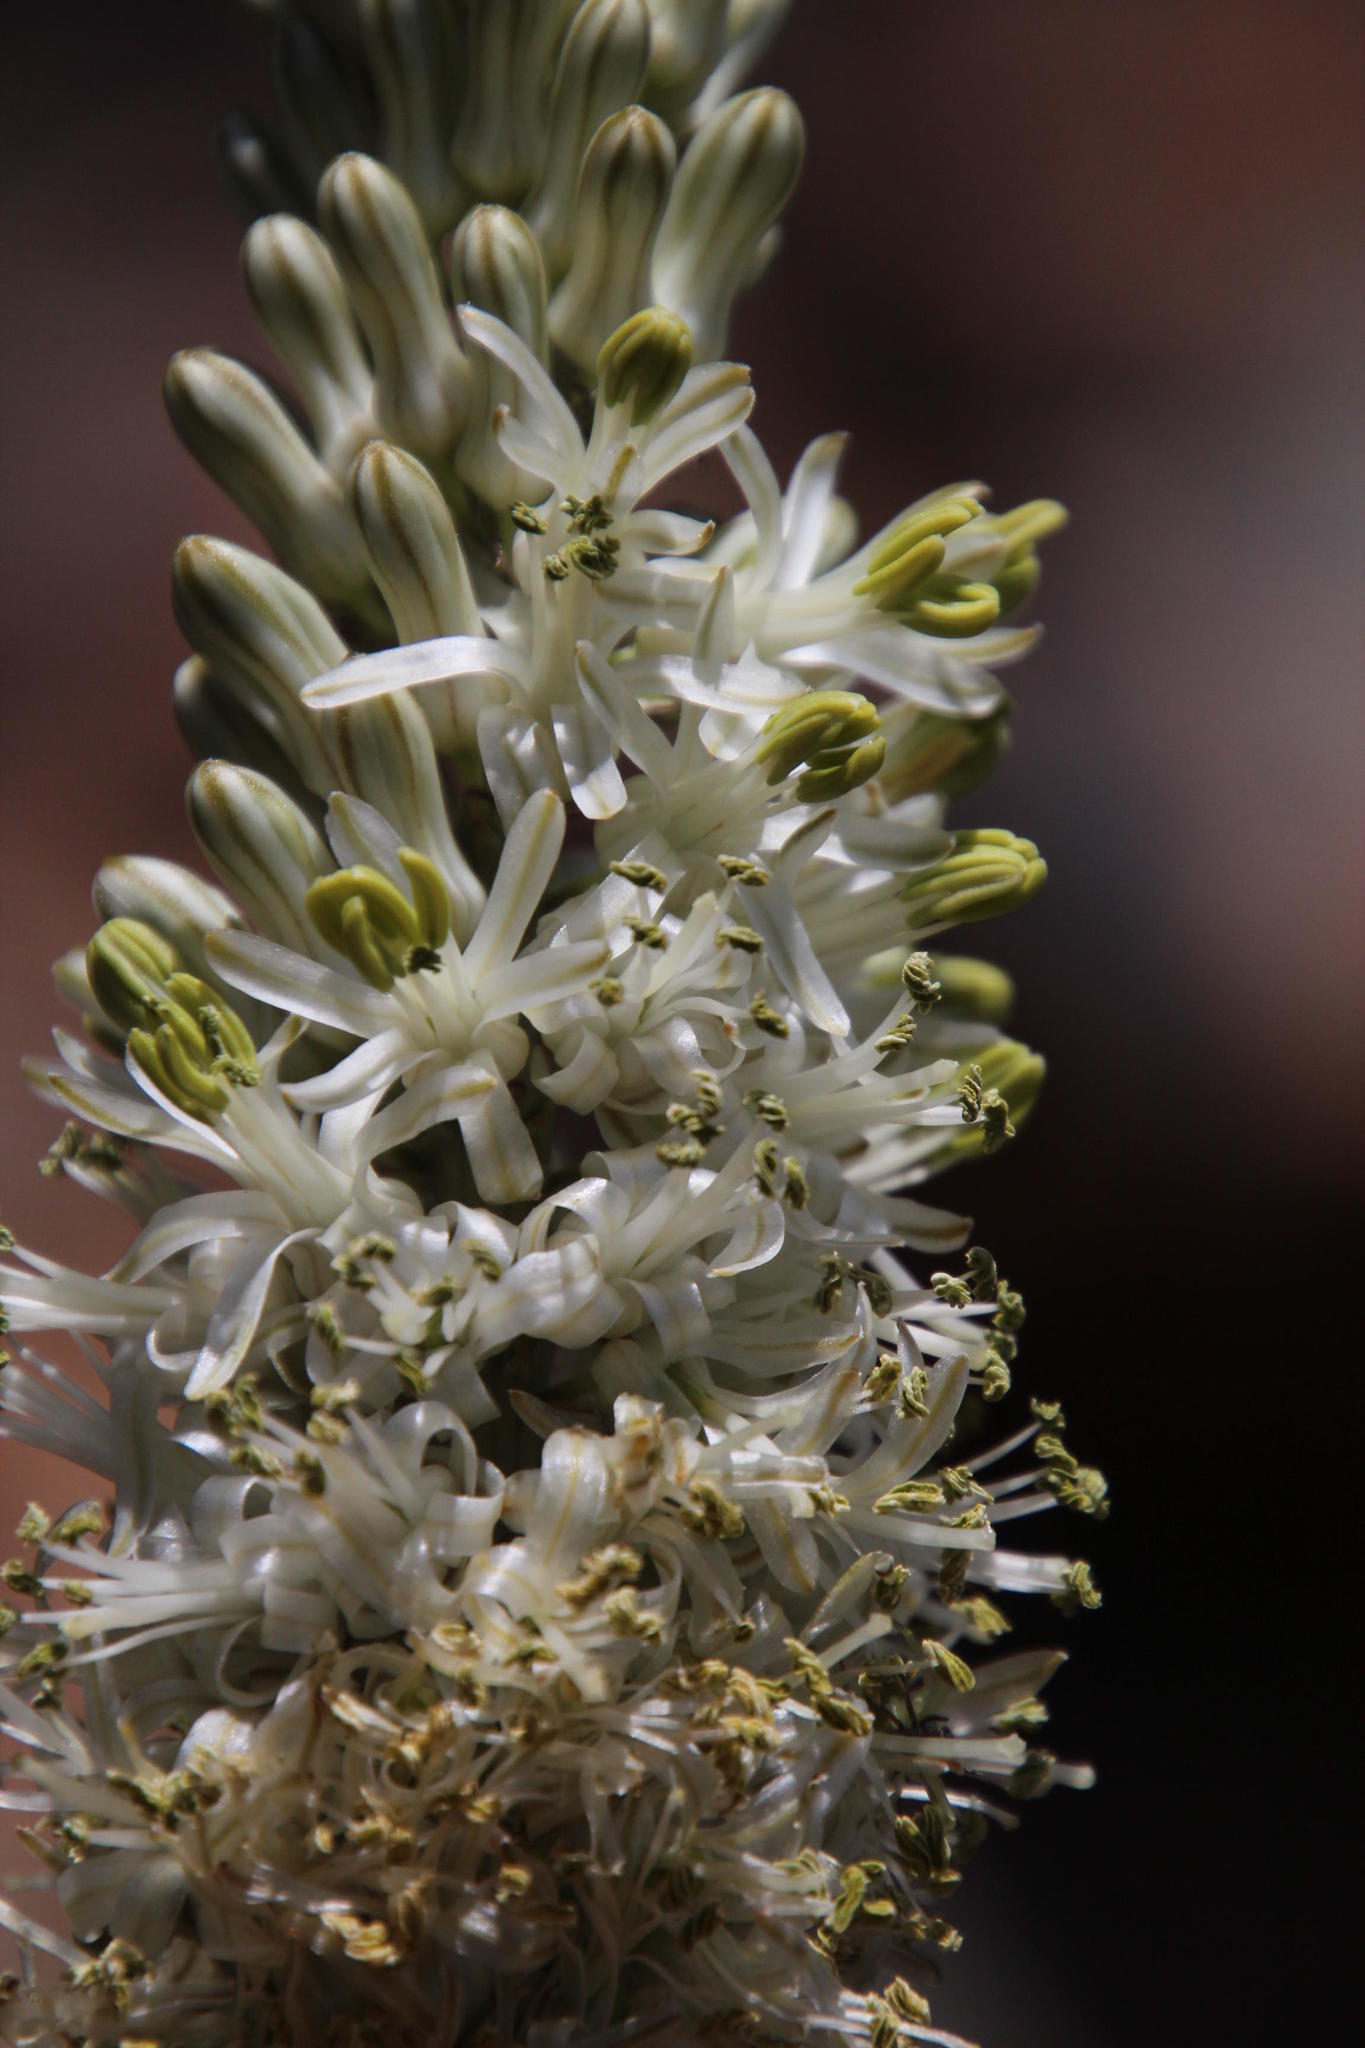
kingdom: Plantae
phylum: Tracheophyta
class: Liliopsida
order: Asparagales
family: Asparagaceae
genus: Drimia
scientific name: Drimia capensis
